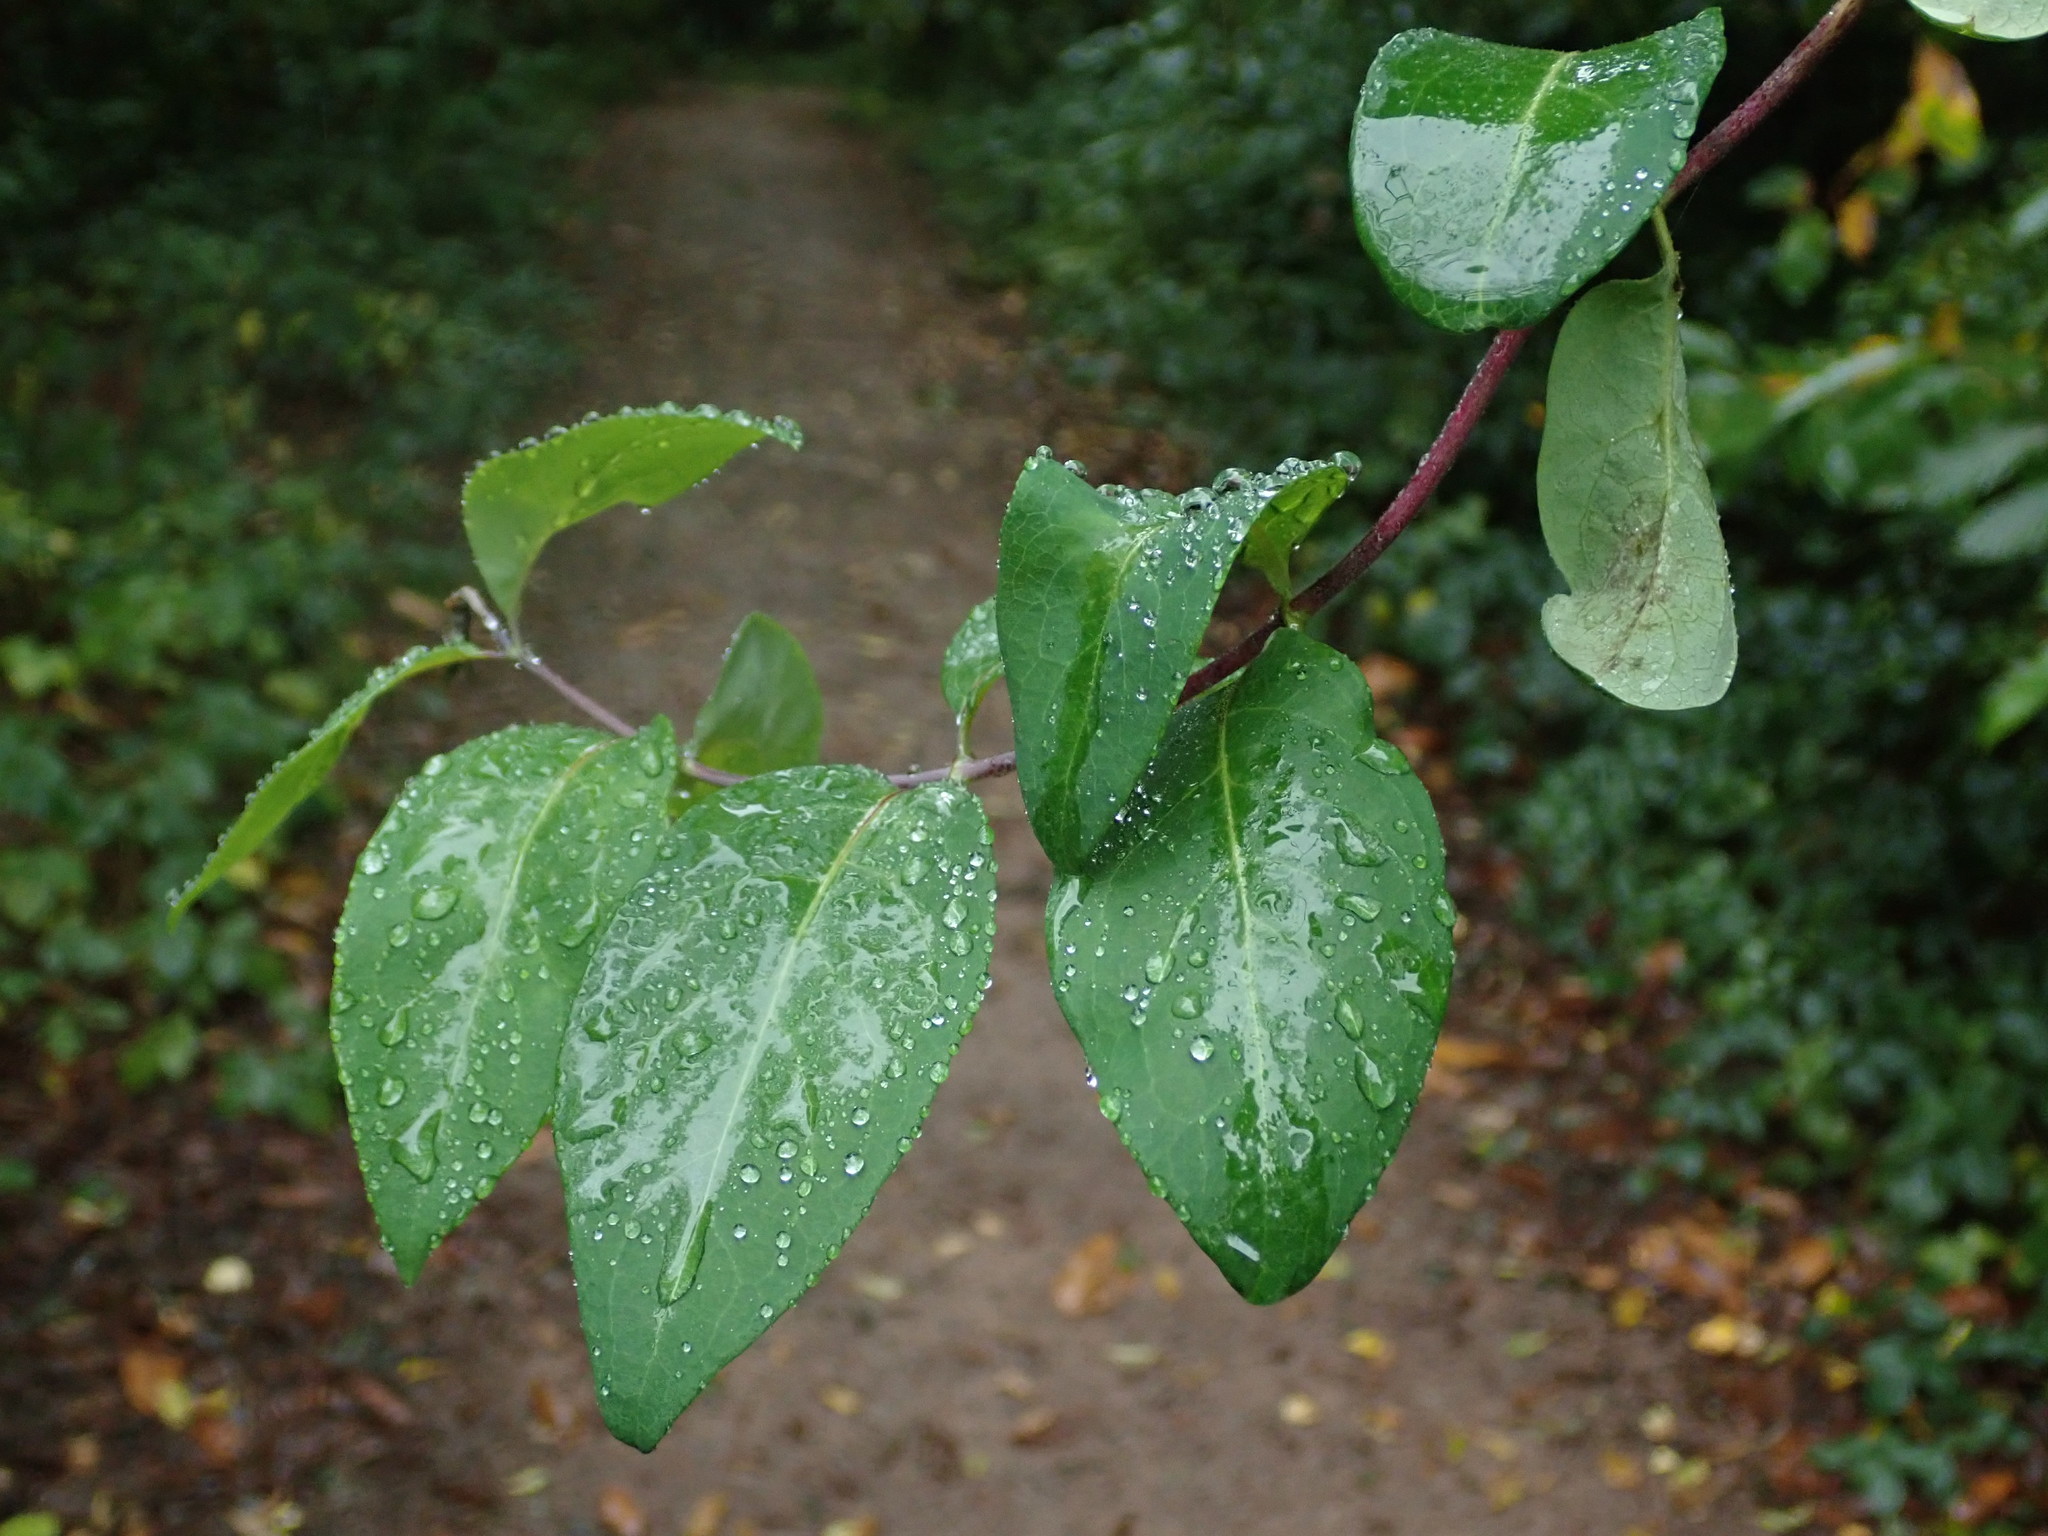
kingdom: Plantae
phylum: Tracheophyta
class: Magnoliopsida
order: Dipsacales
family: Caprifoliaceae
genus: Lonicera
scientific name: Lonicera periclymenum
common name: European honeysuckle
